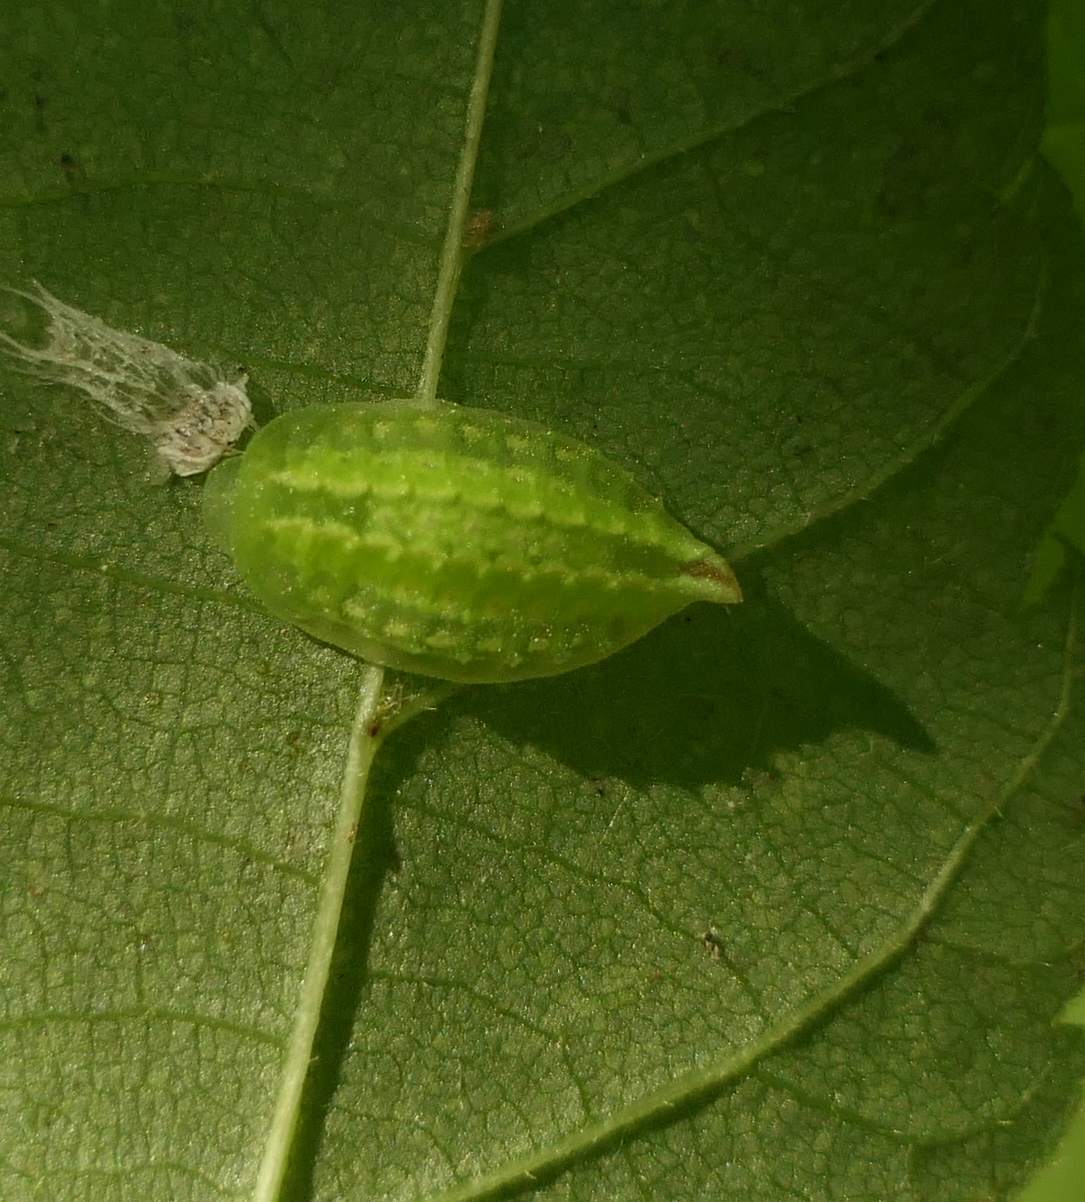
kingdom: Animalia
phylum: Arthropoda
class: Insecta
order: Lepidoptera
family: Limacodidae
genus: Packardia
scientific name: Packardia elegans
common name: Elegant tailed slug moth
